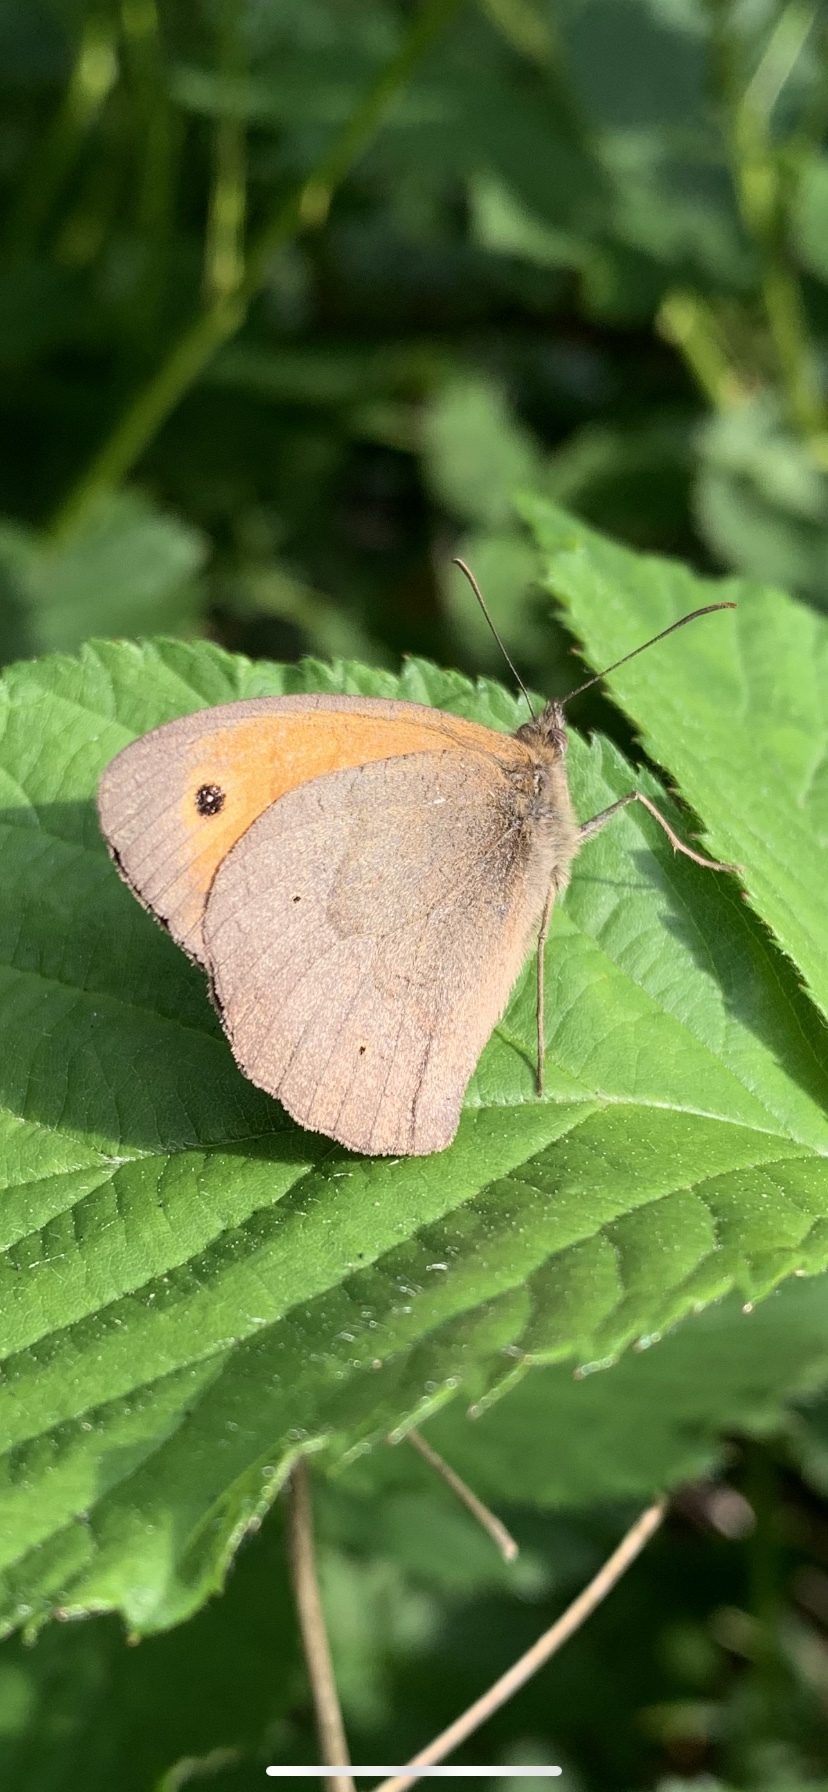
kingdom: Animalia
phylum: Arthropoda
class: Insecta
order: Lepidoptera
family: Nymphalidae
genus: Maniola
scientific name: Maniola jurtina
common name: Meadow brown
